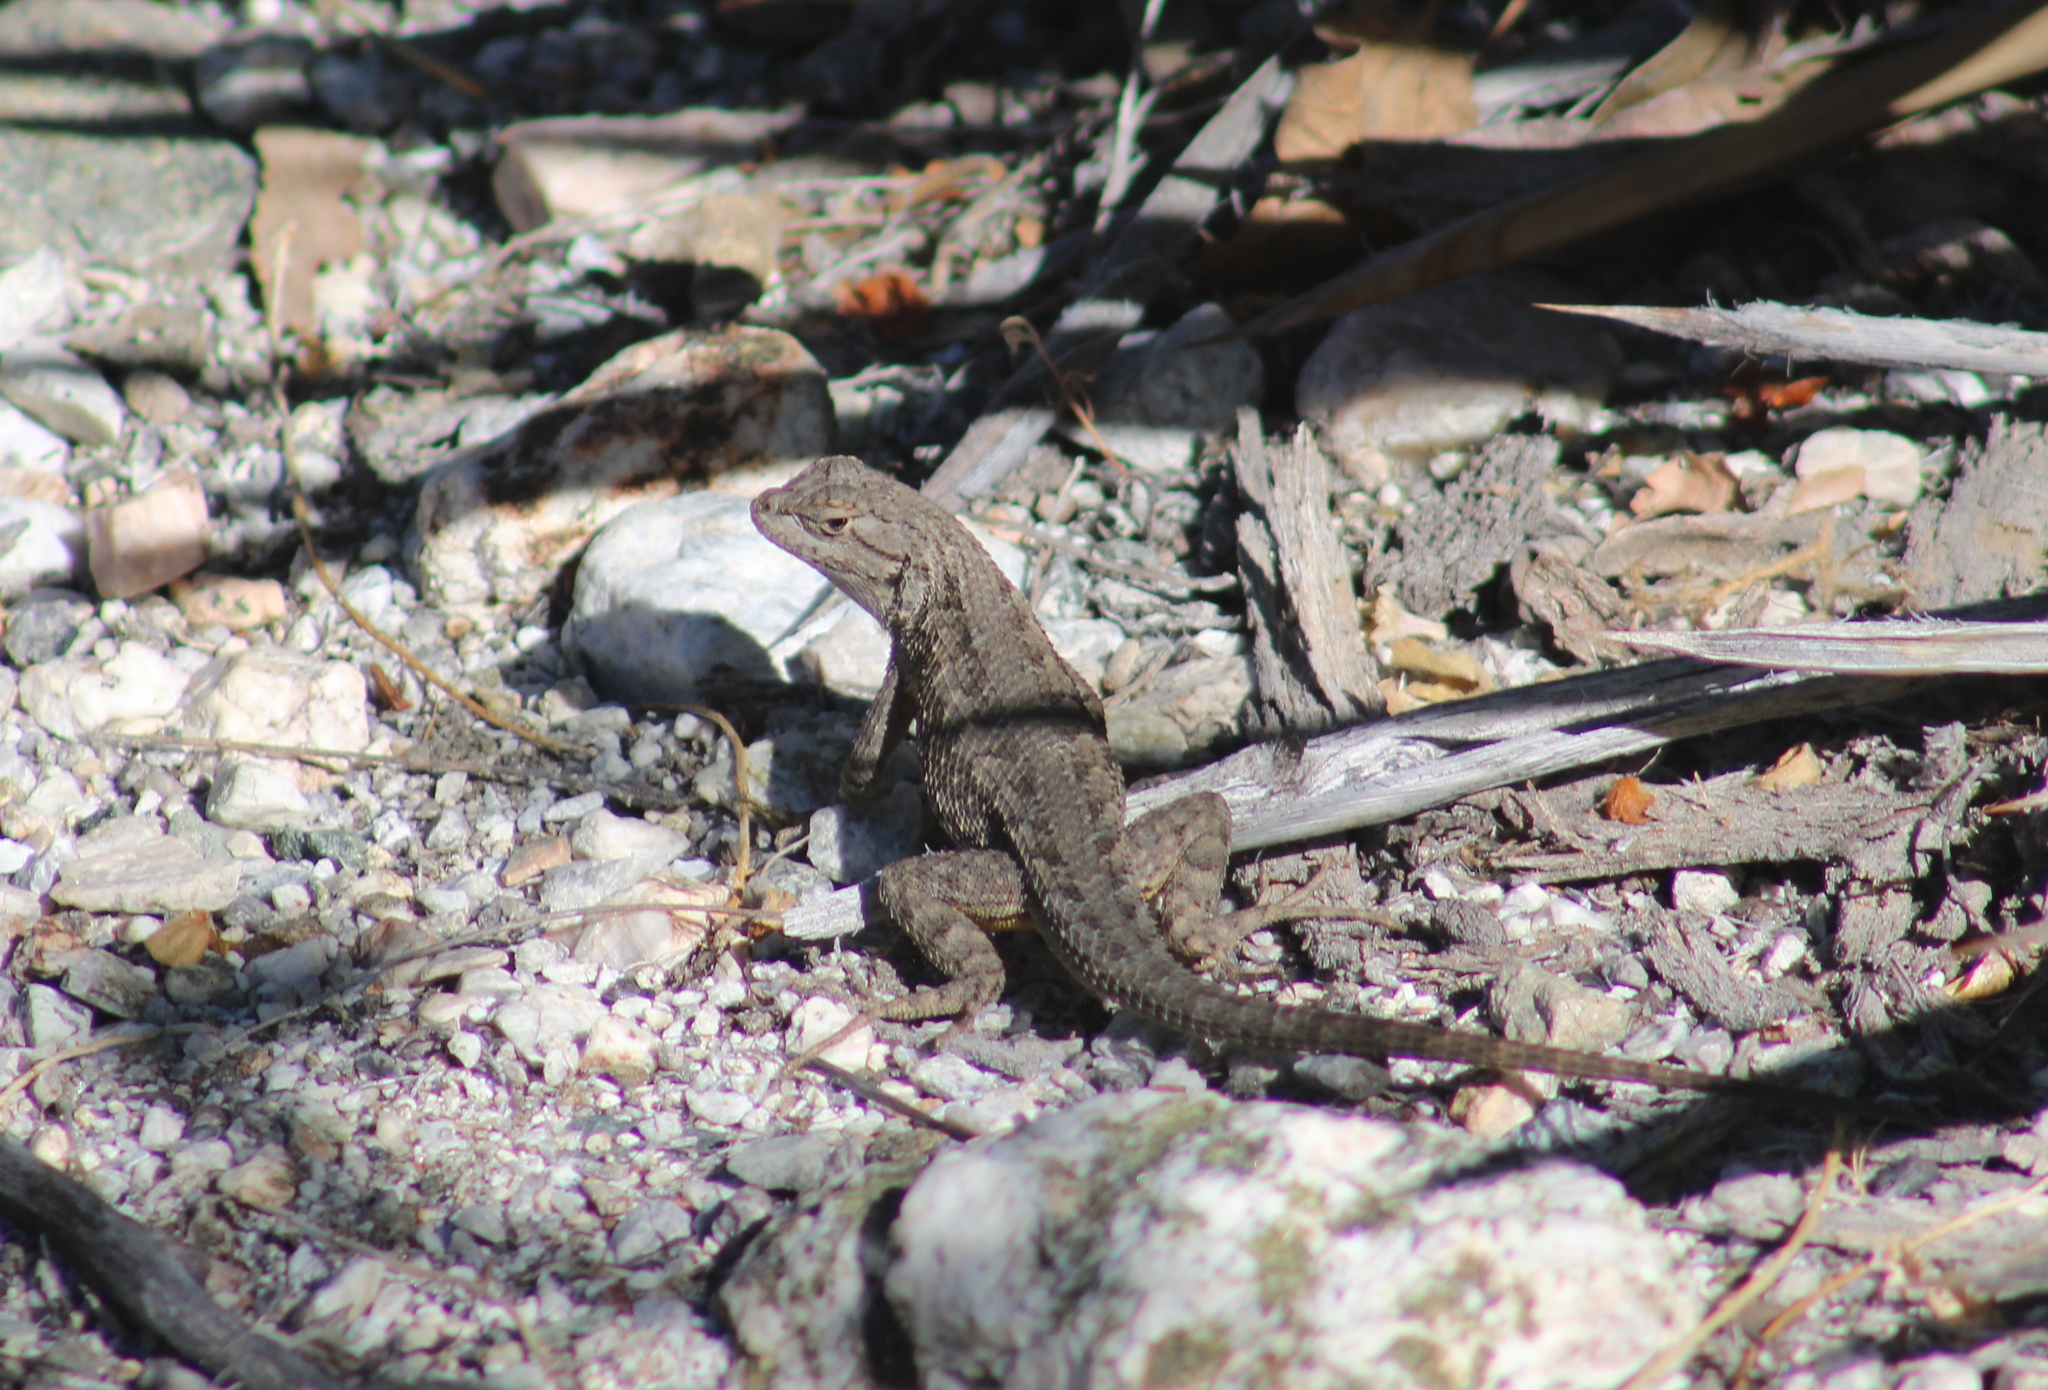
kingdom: Animalia
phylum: Chordata
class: Squamata
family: Phrynosomatidae
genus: Sceloporus
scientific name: Sceloporus occidentalis
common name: Western fence lizard
